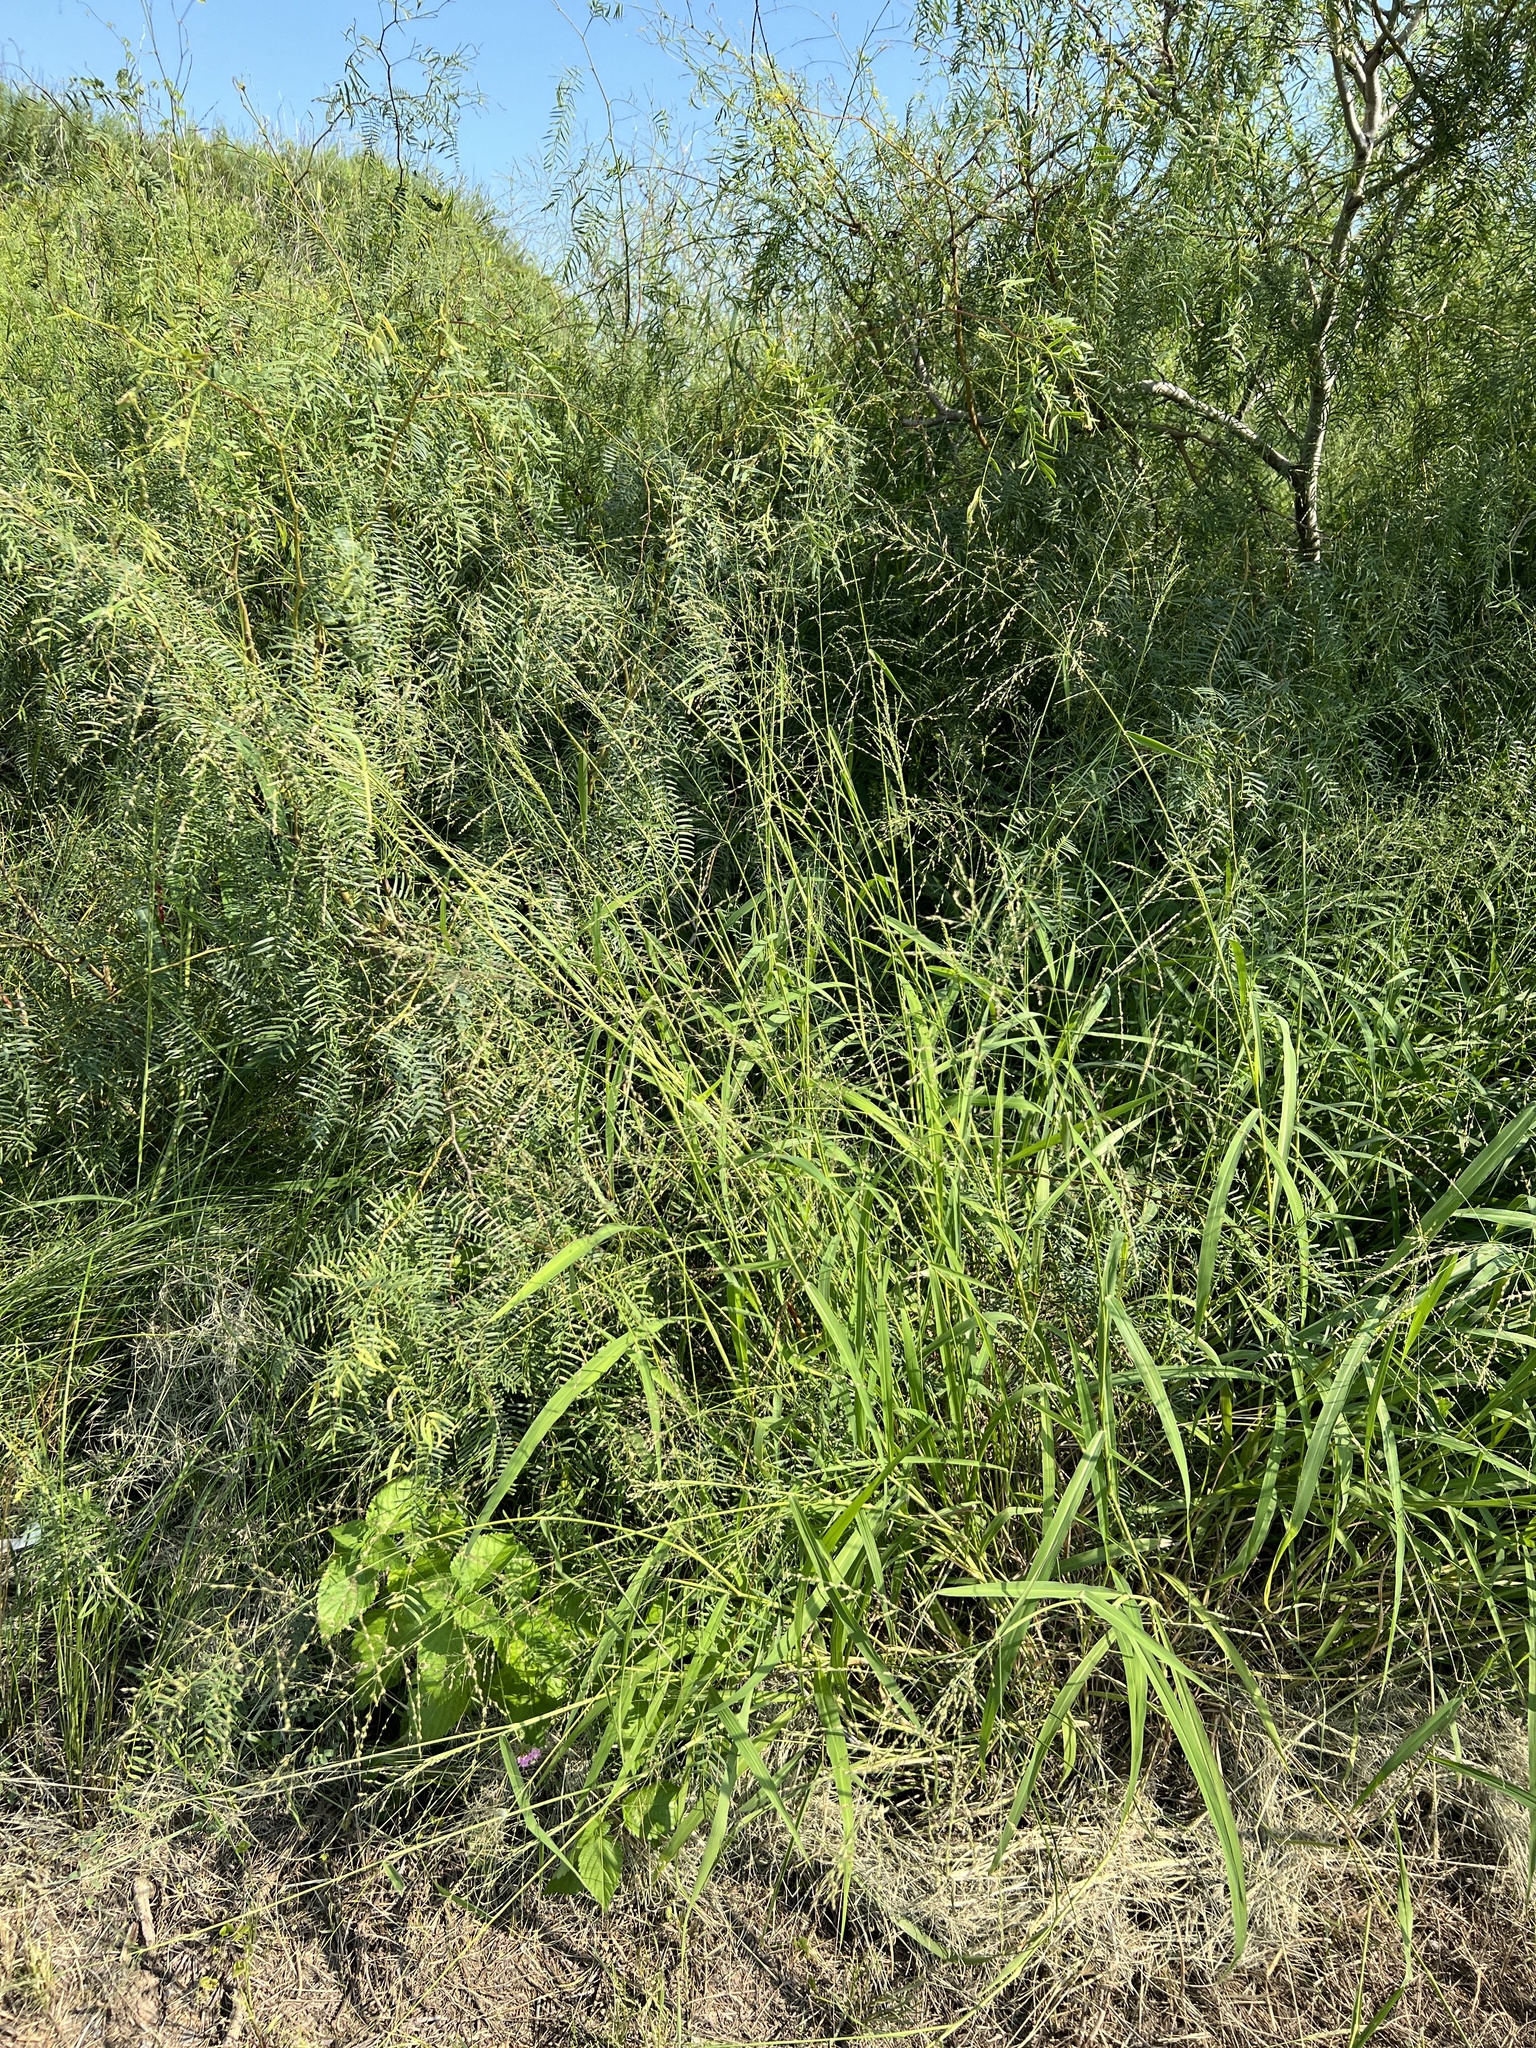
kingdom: Plantae
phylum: Tracheophyta
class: Liliopsida
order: Poales
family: Poaceae
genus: Megathyrsus
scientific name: Megathyrsus maximus
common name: Guineagrass
